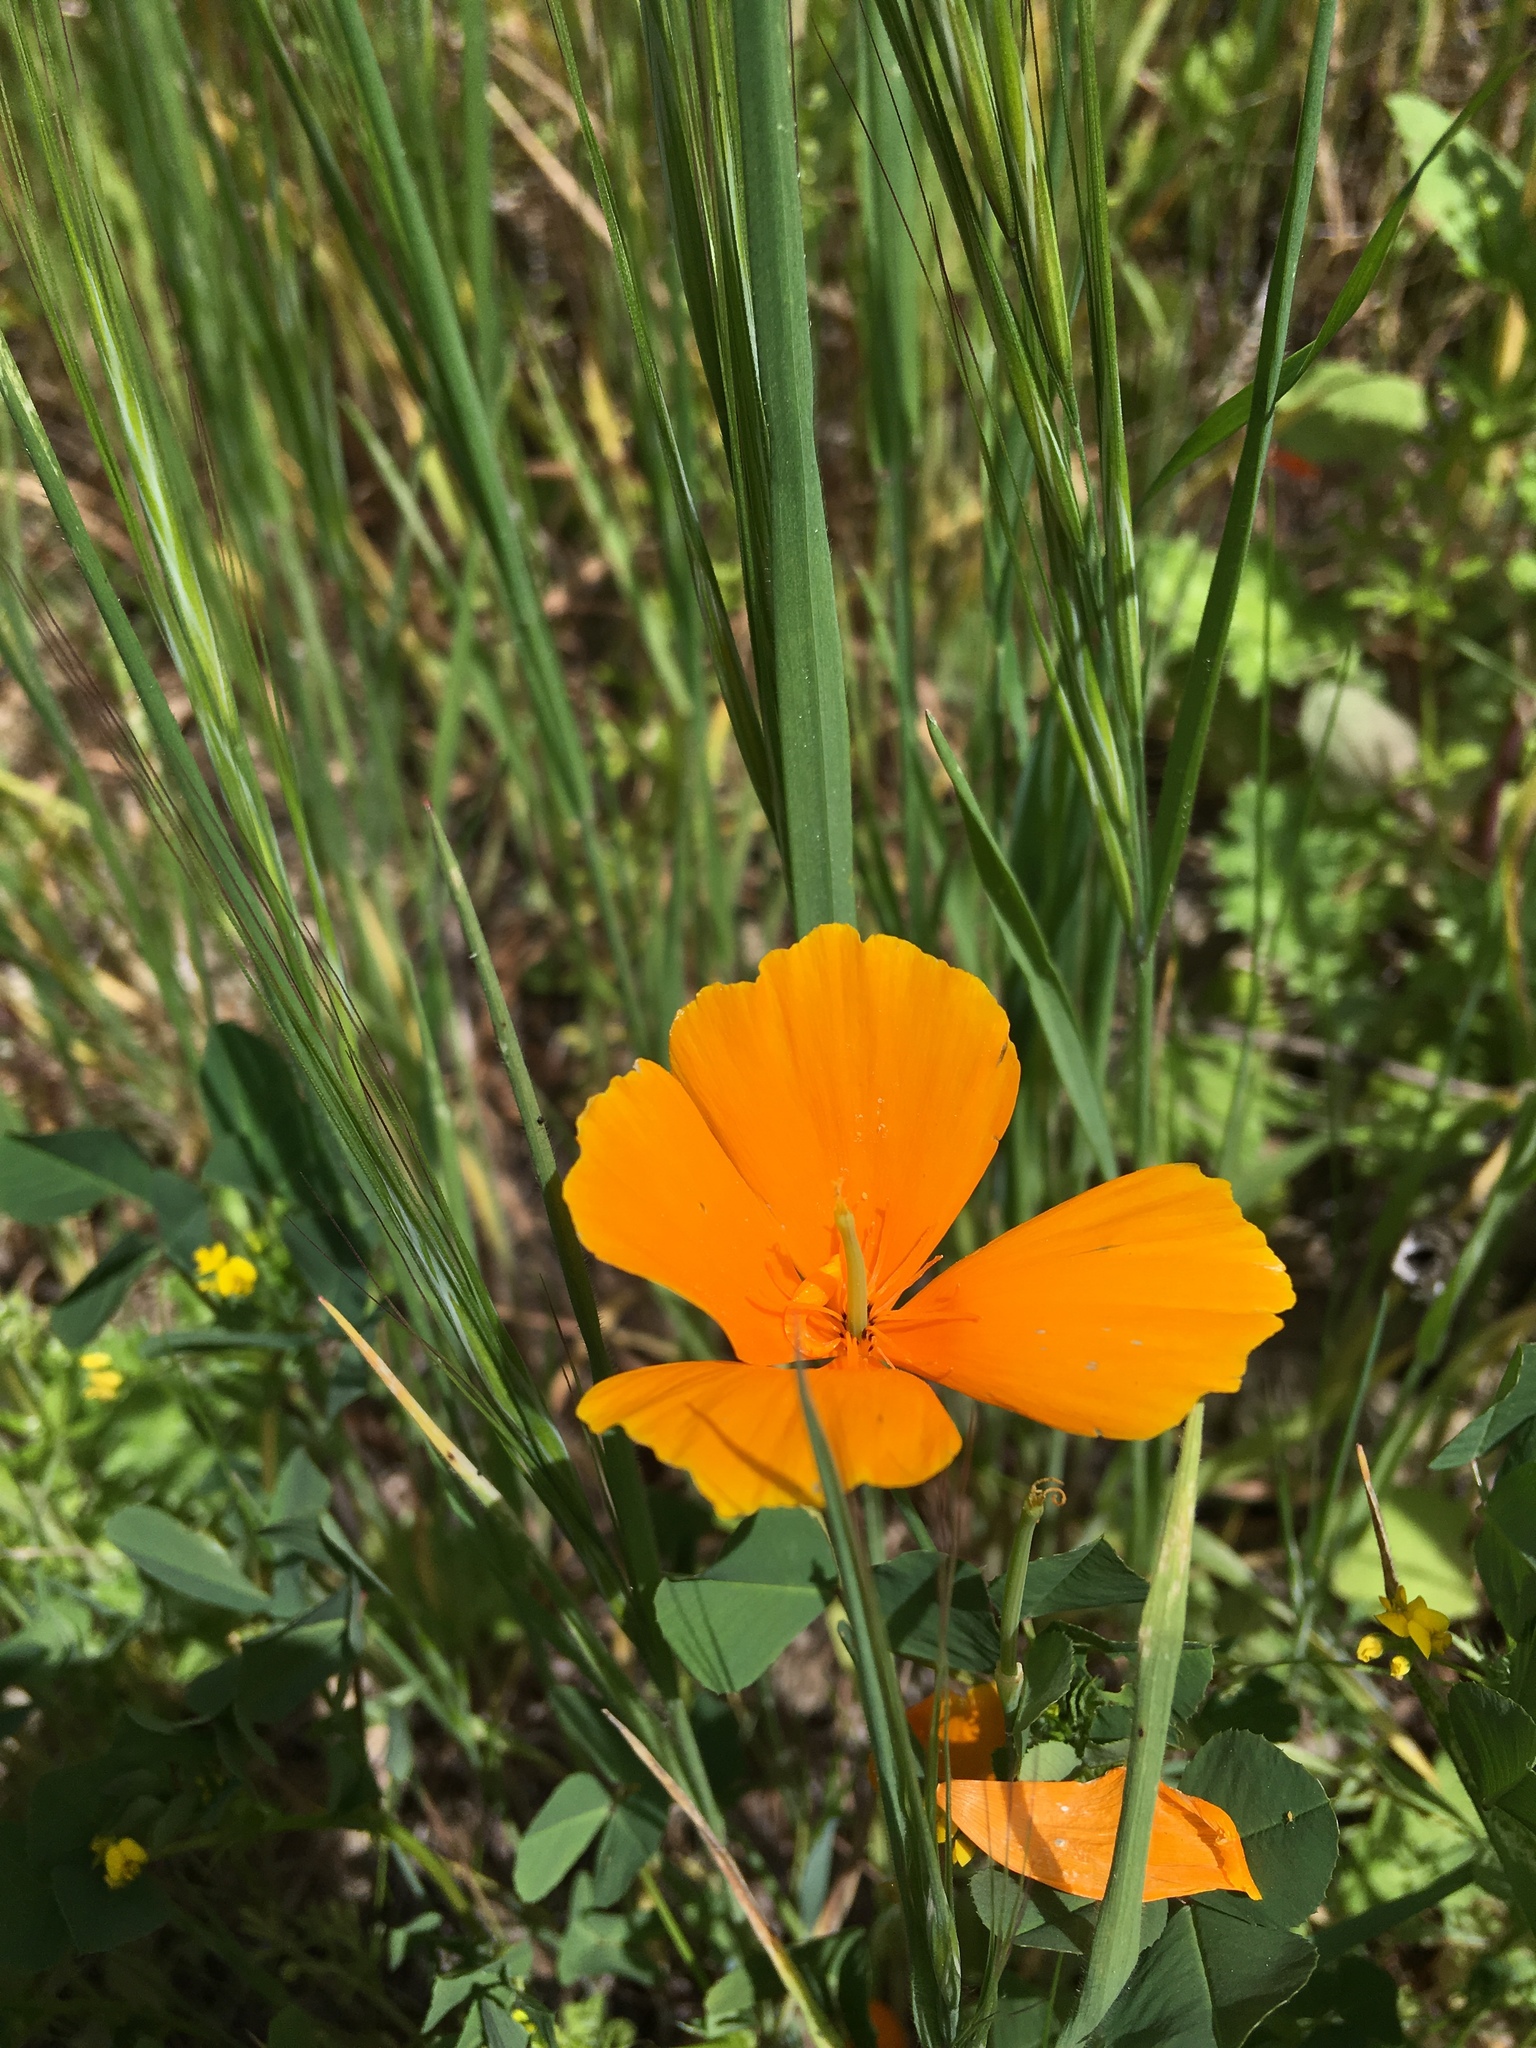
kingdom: Plantae
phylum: Tracheophyta
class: Magnoliopsida
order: Ranunculales
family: Papaveraceae
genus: Eschscholzia
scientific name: Eschscholzia californica
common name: California poppy
